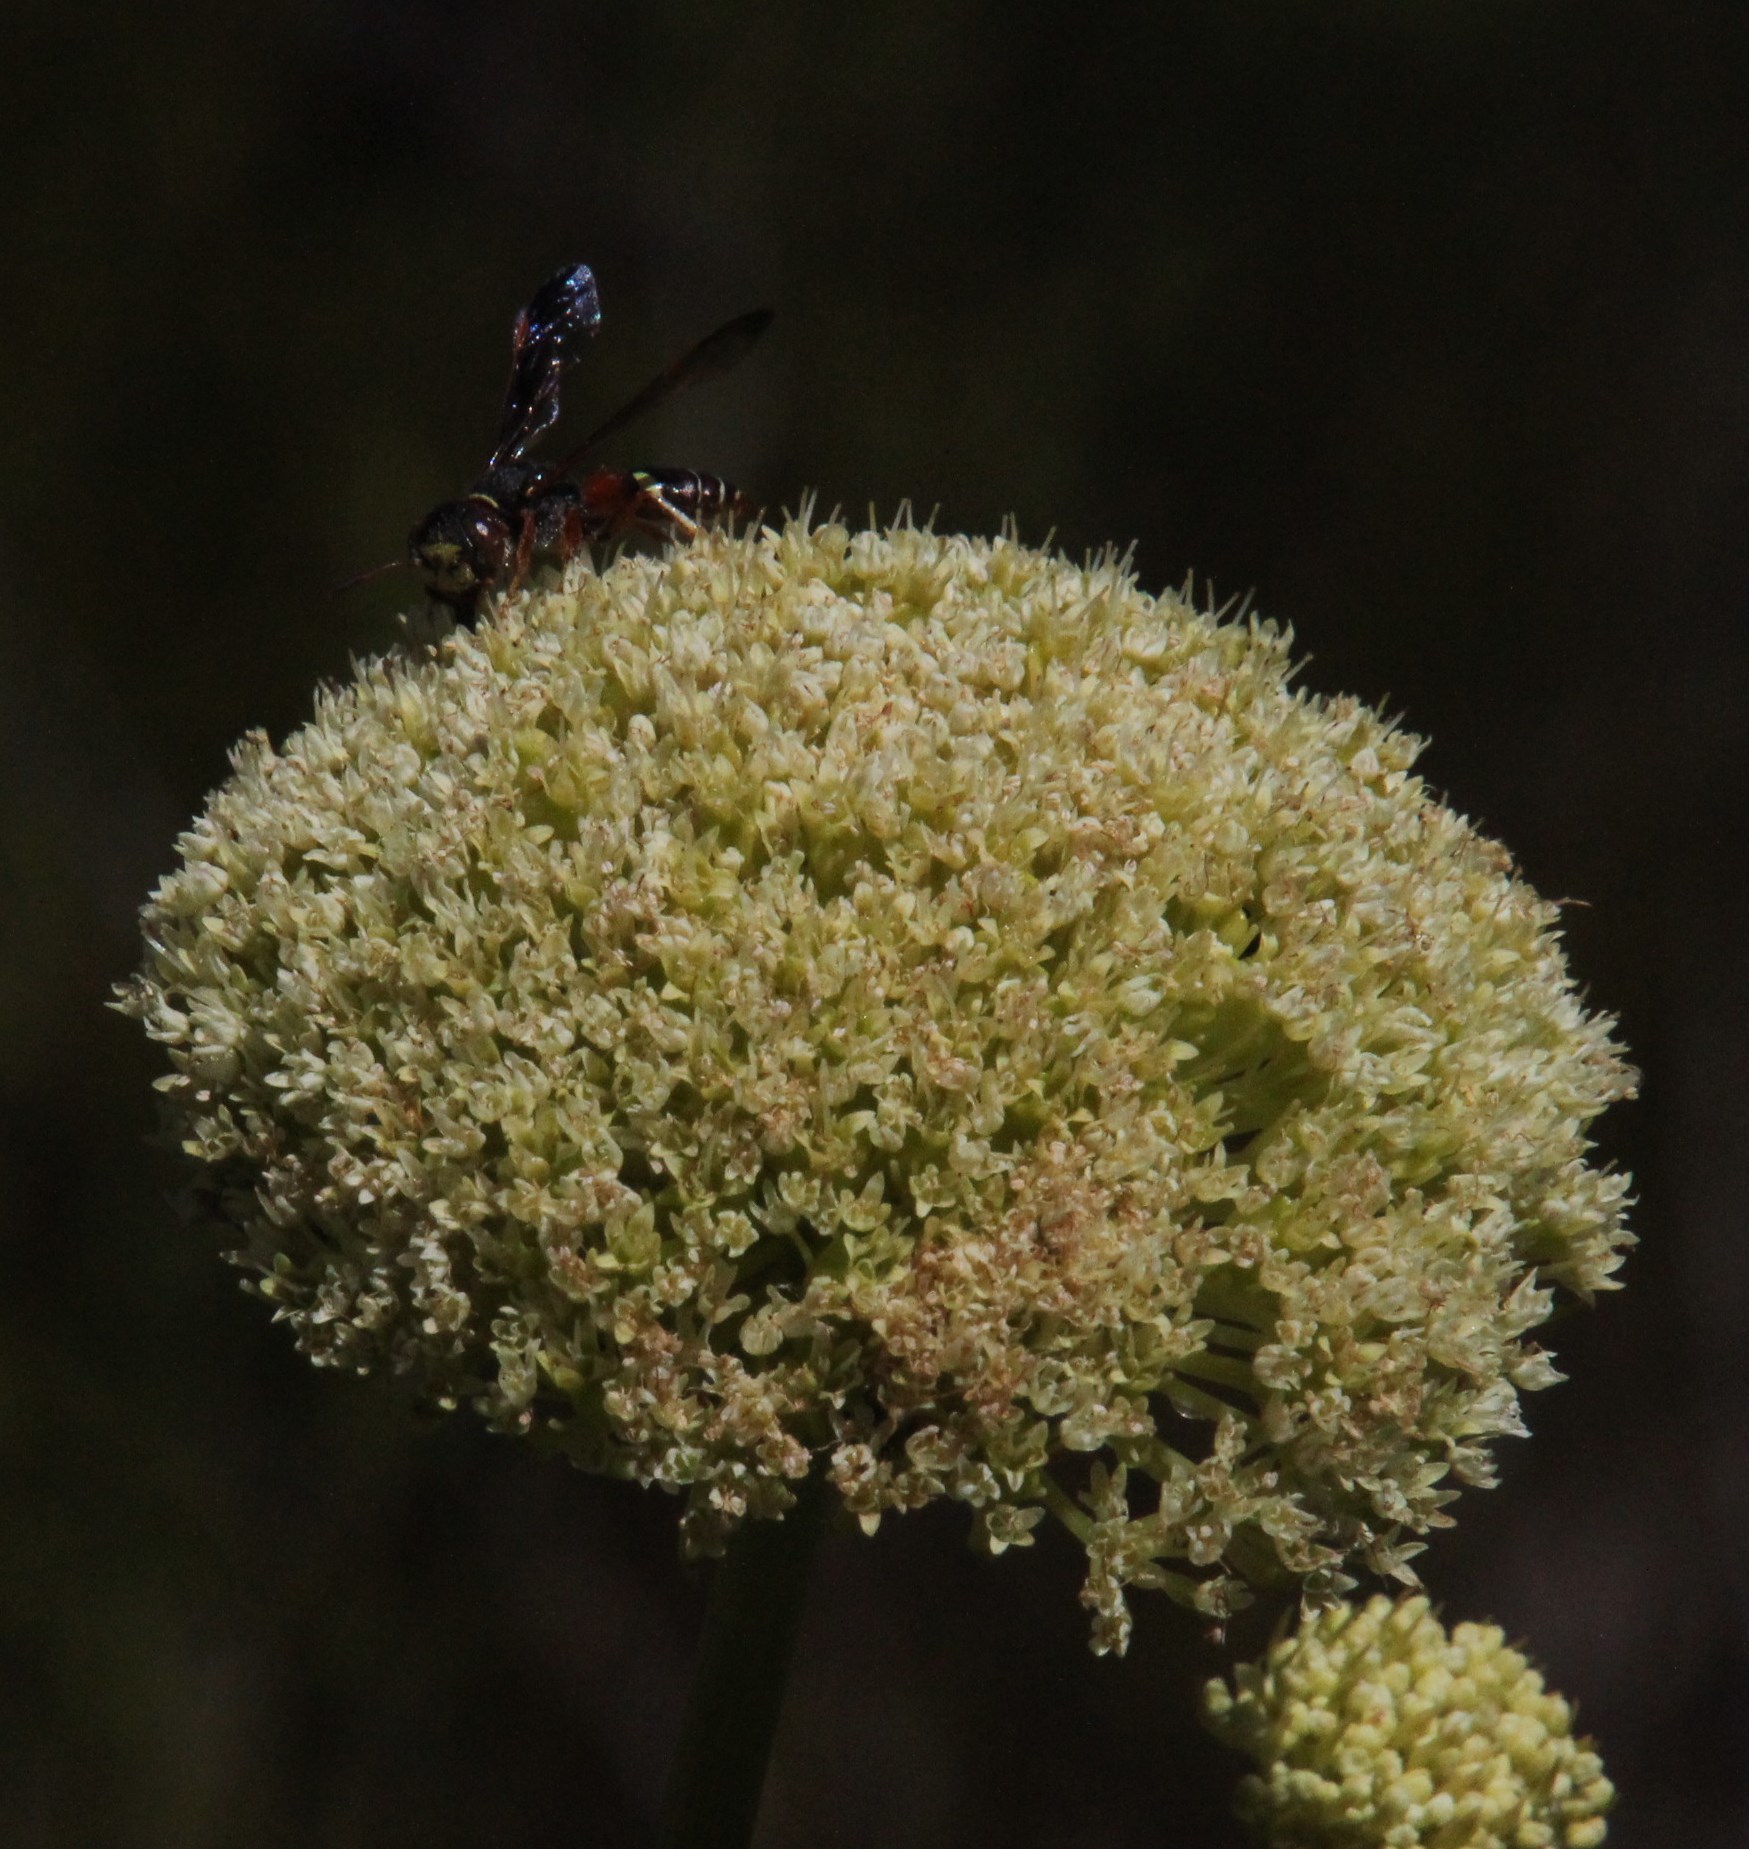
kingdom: Animalia
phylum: Arthropoda
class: Insecta
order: Hymenoptera
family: Crabronidae
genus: Philanthus
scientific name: Philanthus histrio
